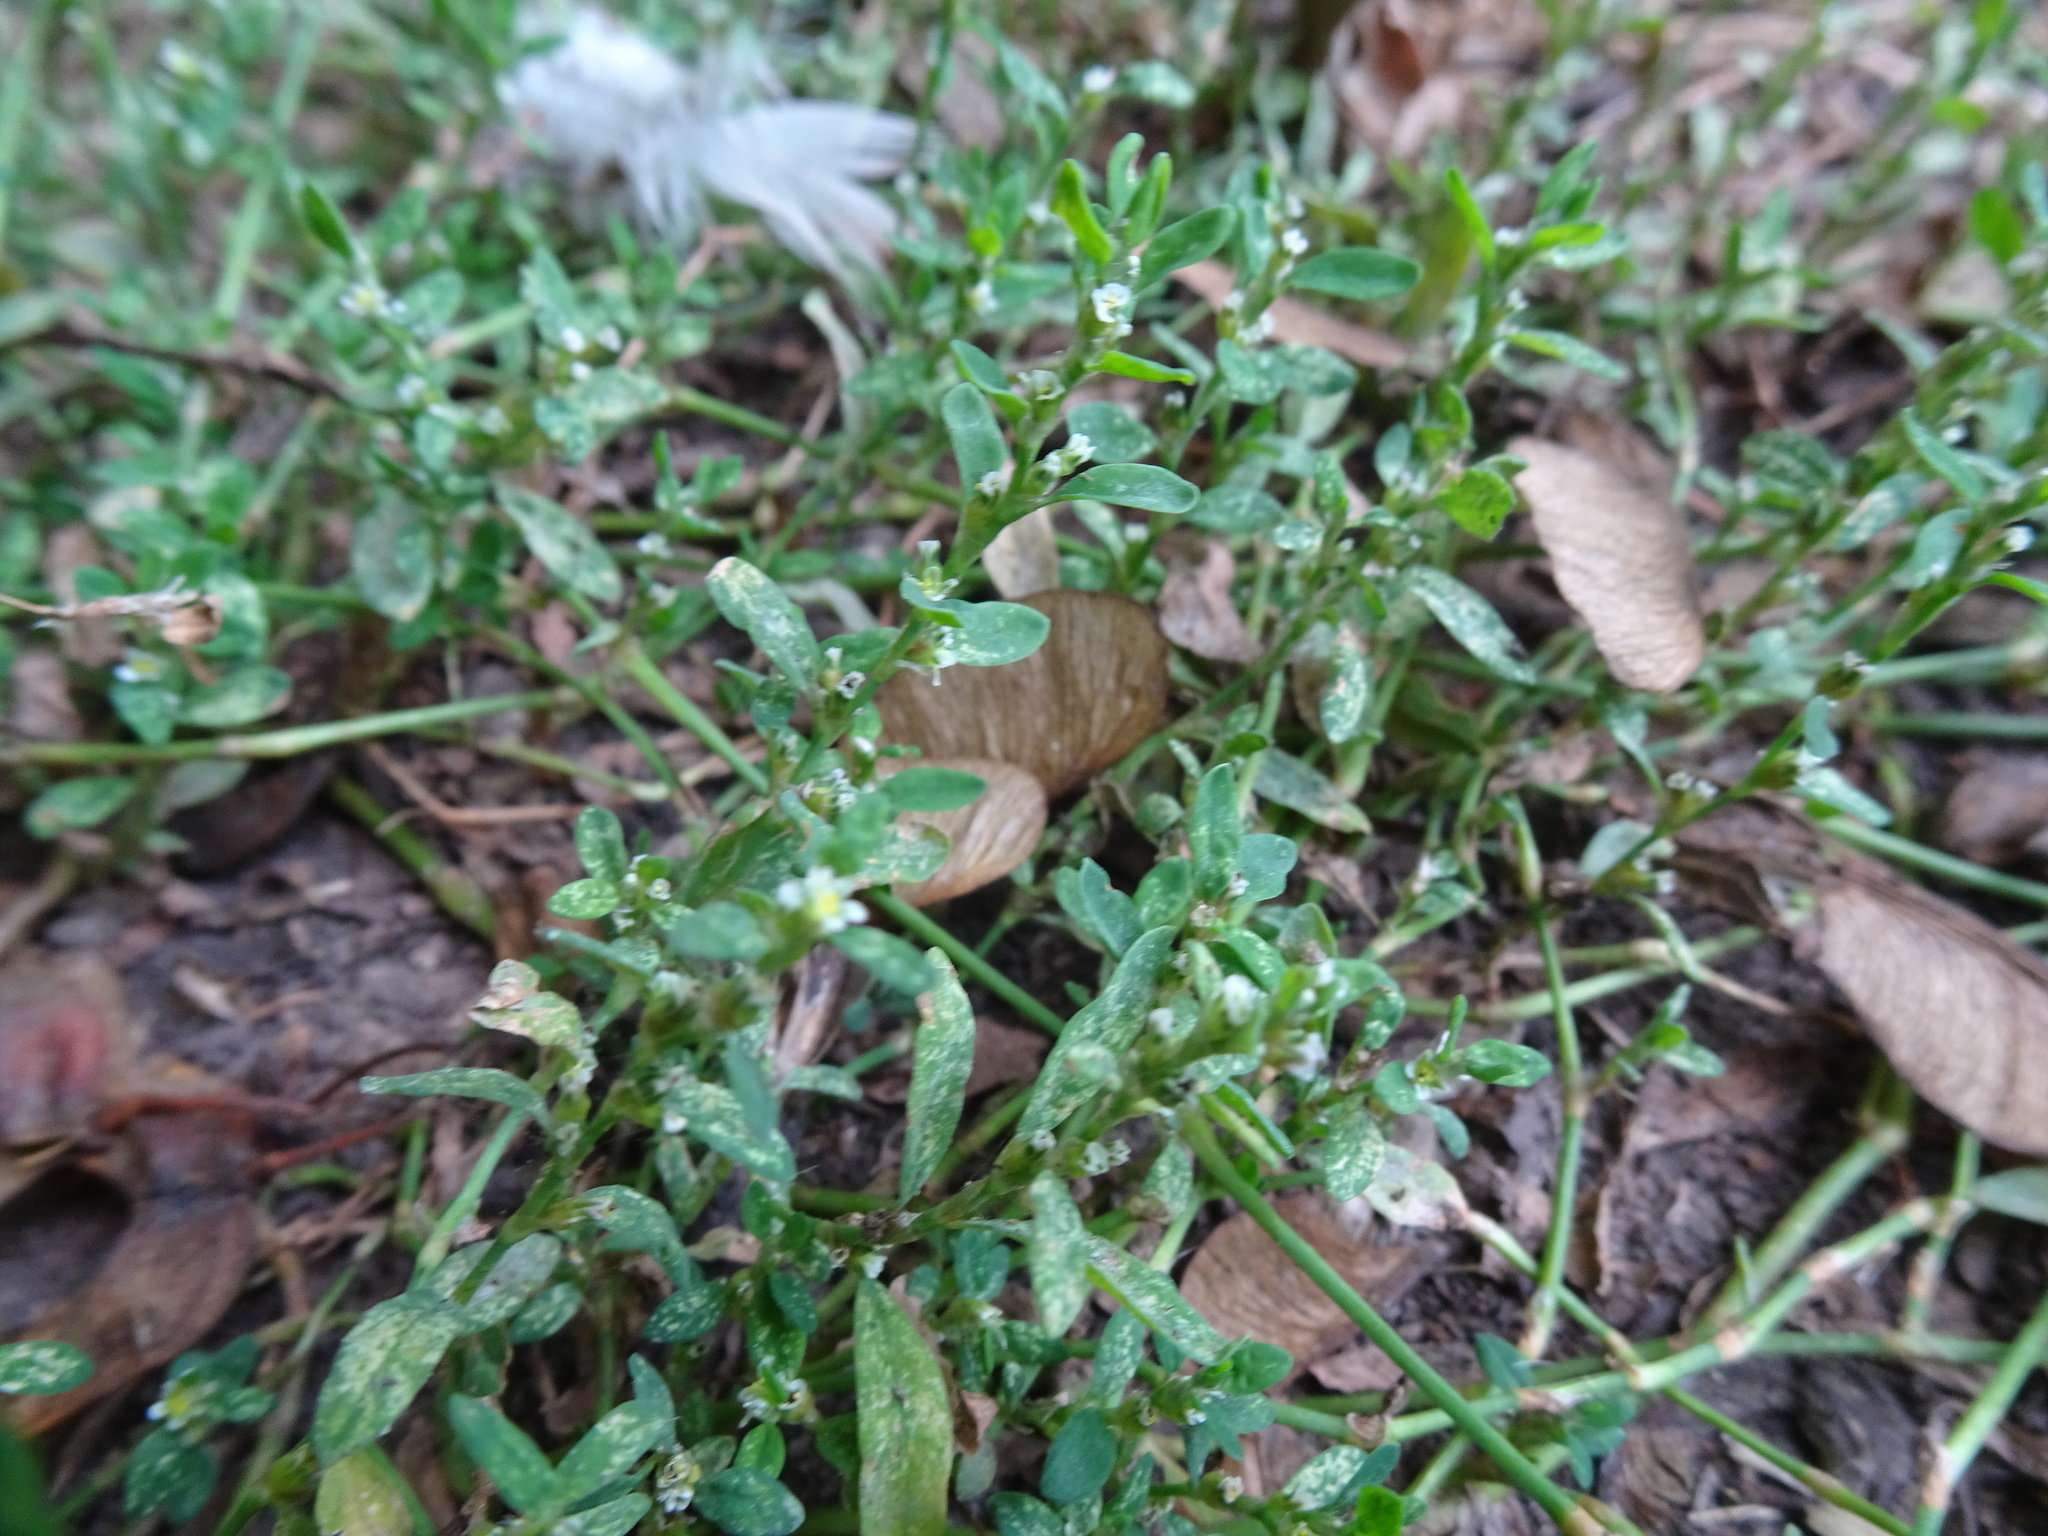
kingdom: Plantae
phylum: Tracheophyta
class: Magnoliopsida
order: Caryophyllales
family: Polygonaceae
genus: Polygonum
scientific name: Polygonum aviculare
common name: Prostrate knotweed
